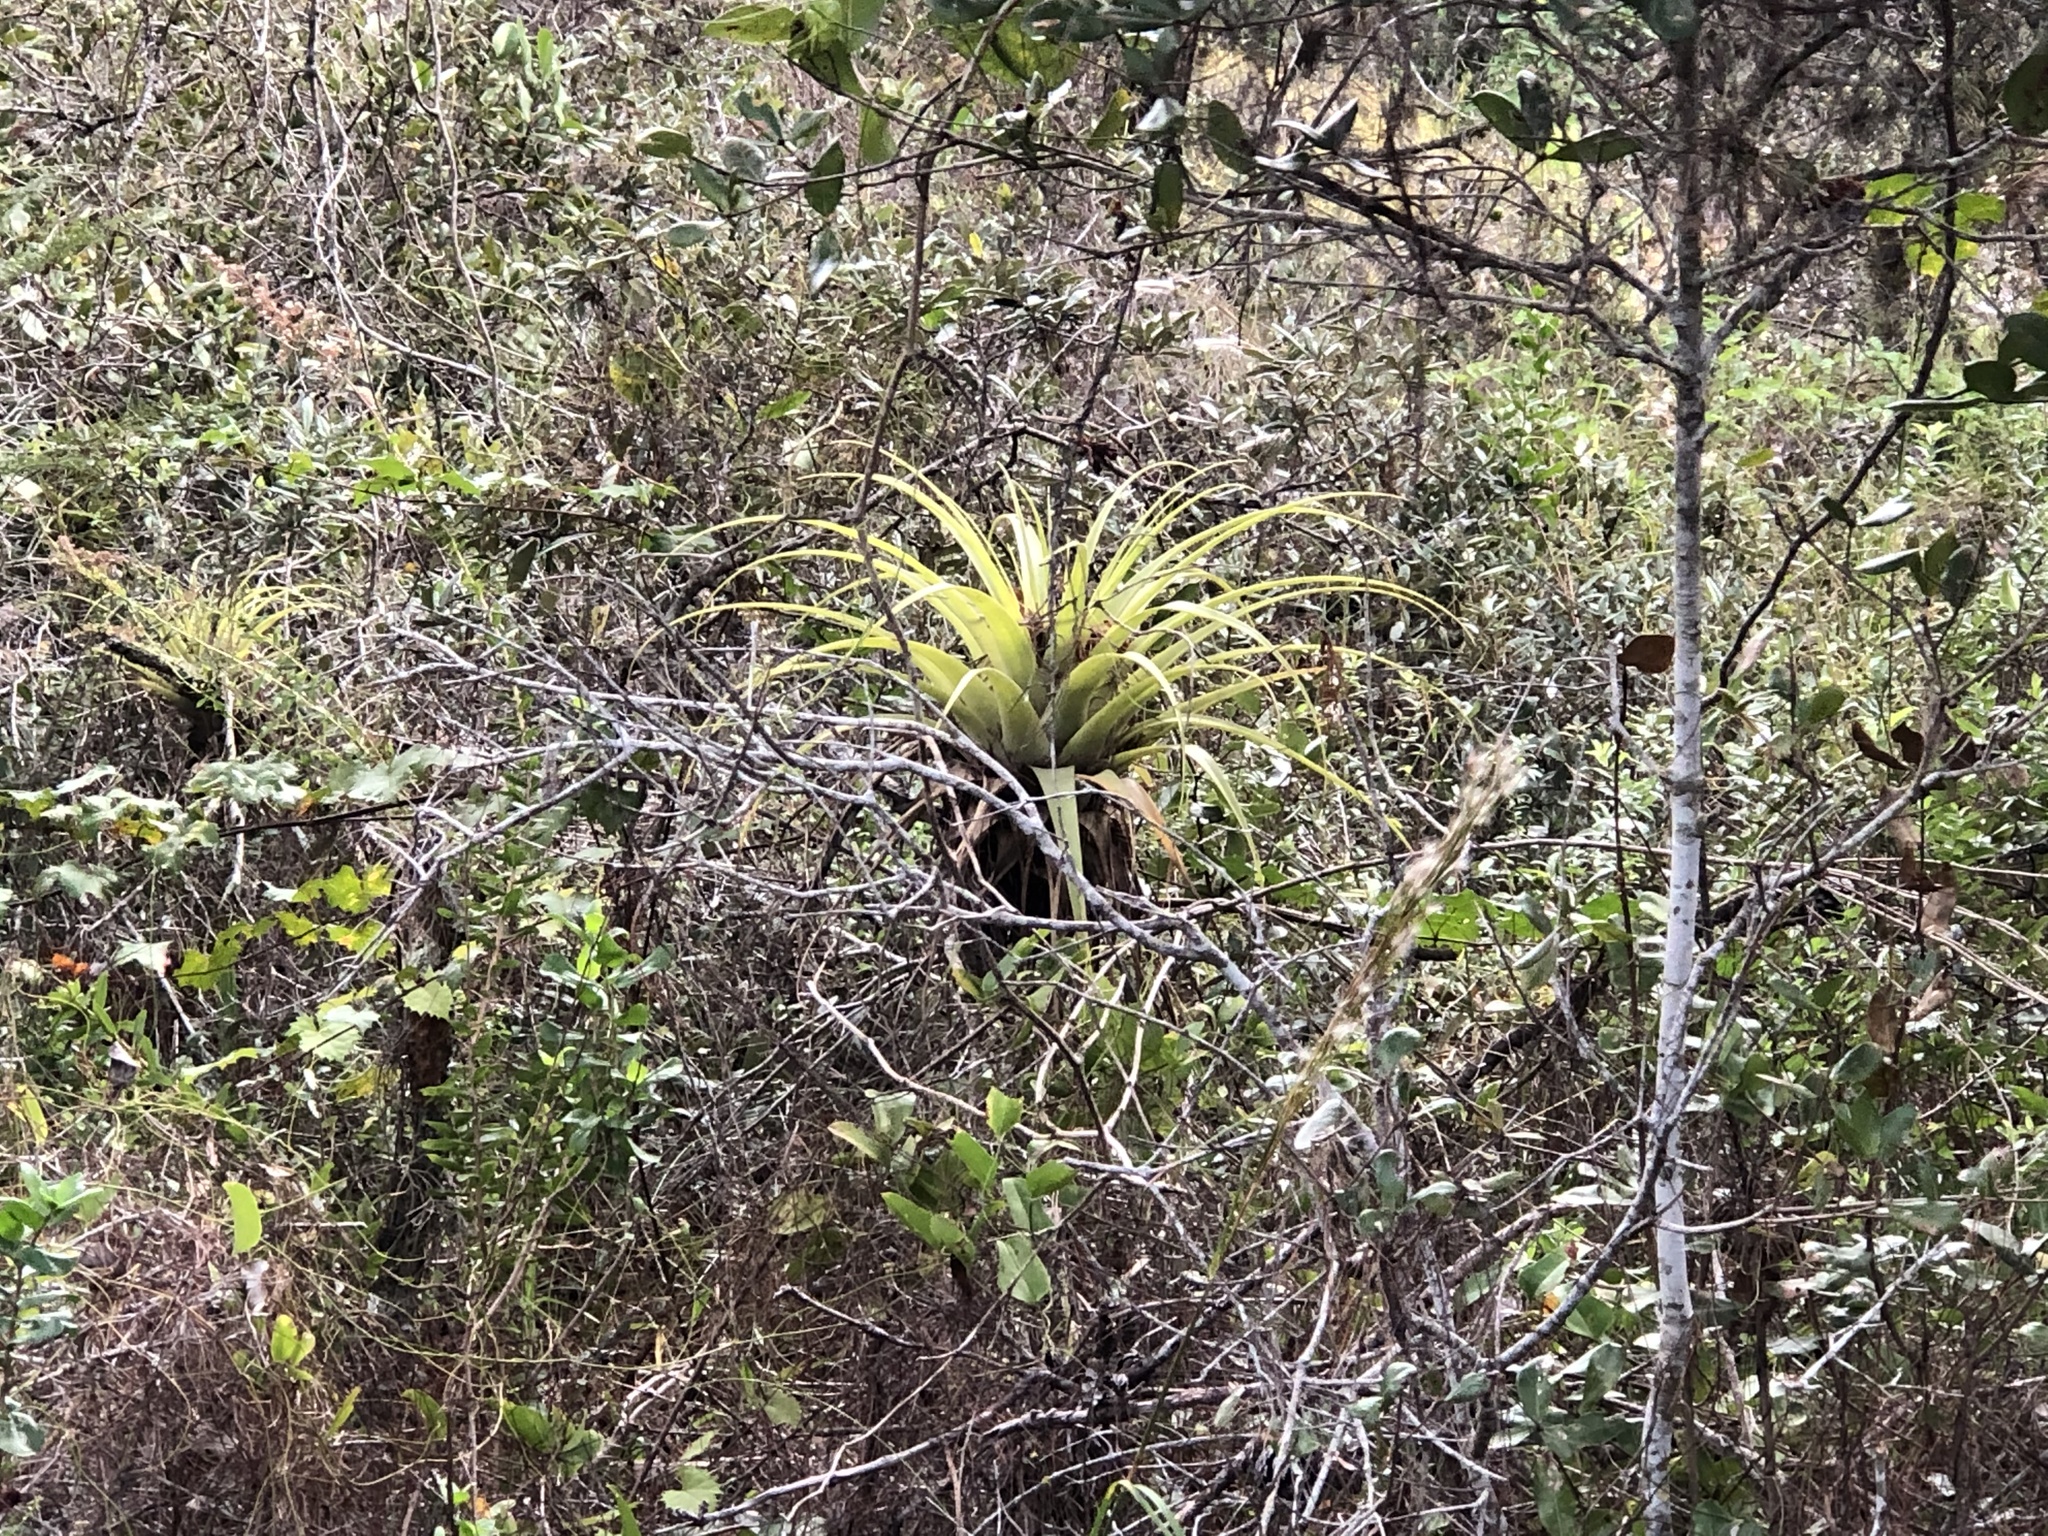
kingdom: Plantae
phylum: Tracheophyta
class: Liliopsida
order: Poales
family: Bromeliaceae
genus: Tillandsia
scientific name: Tillandsia utriculata
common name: Wild pine
